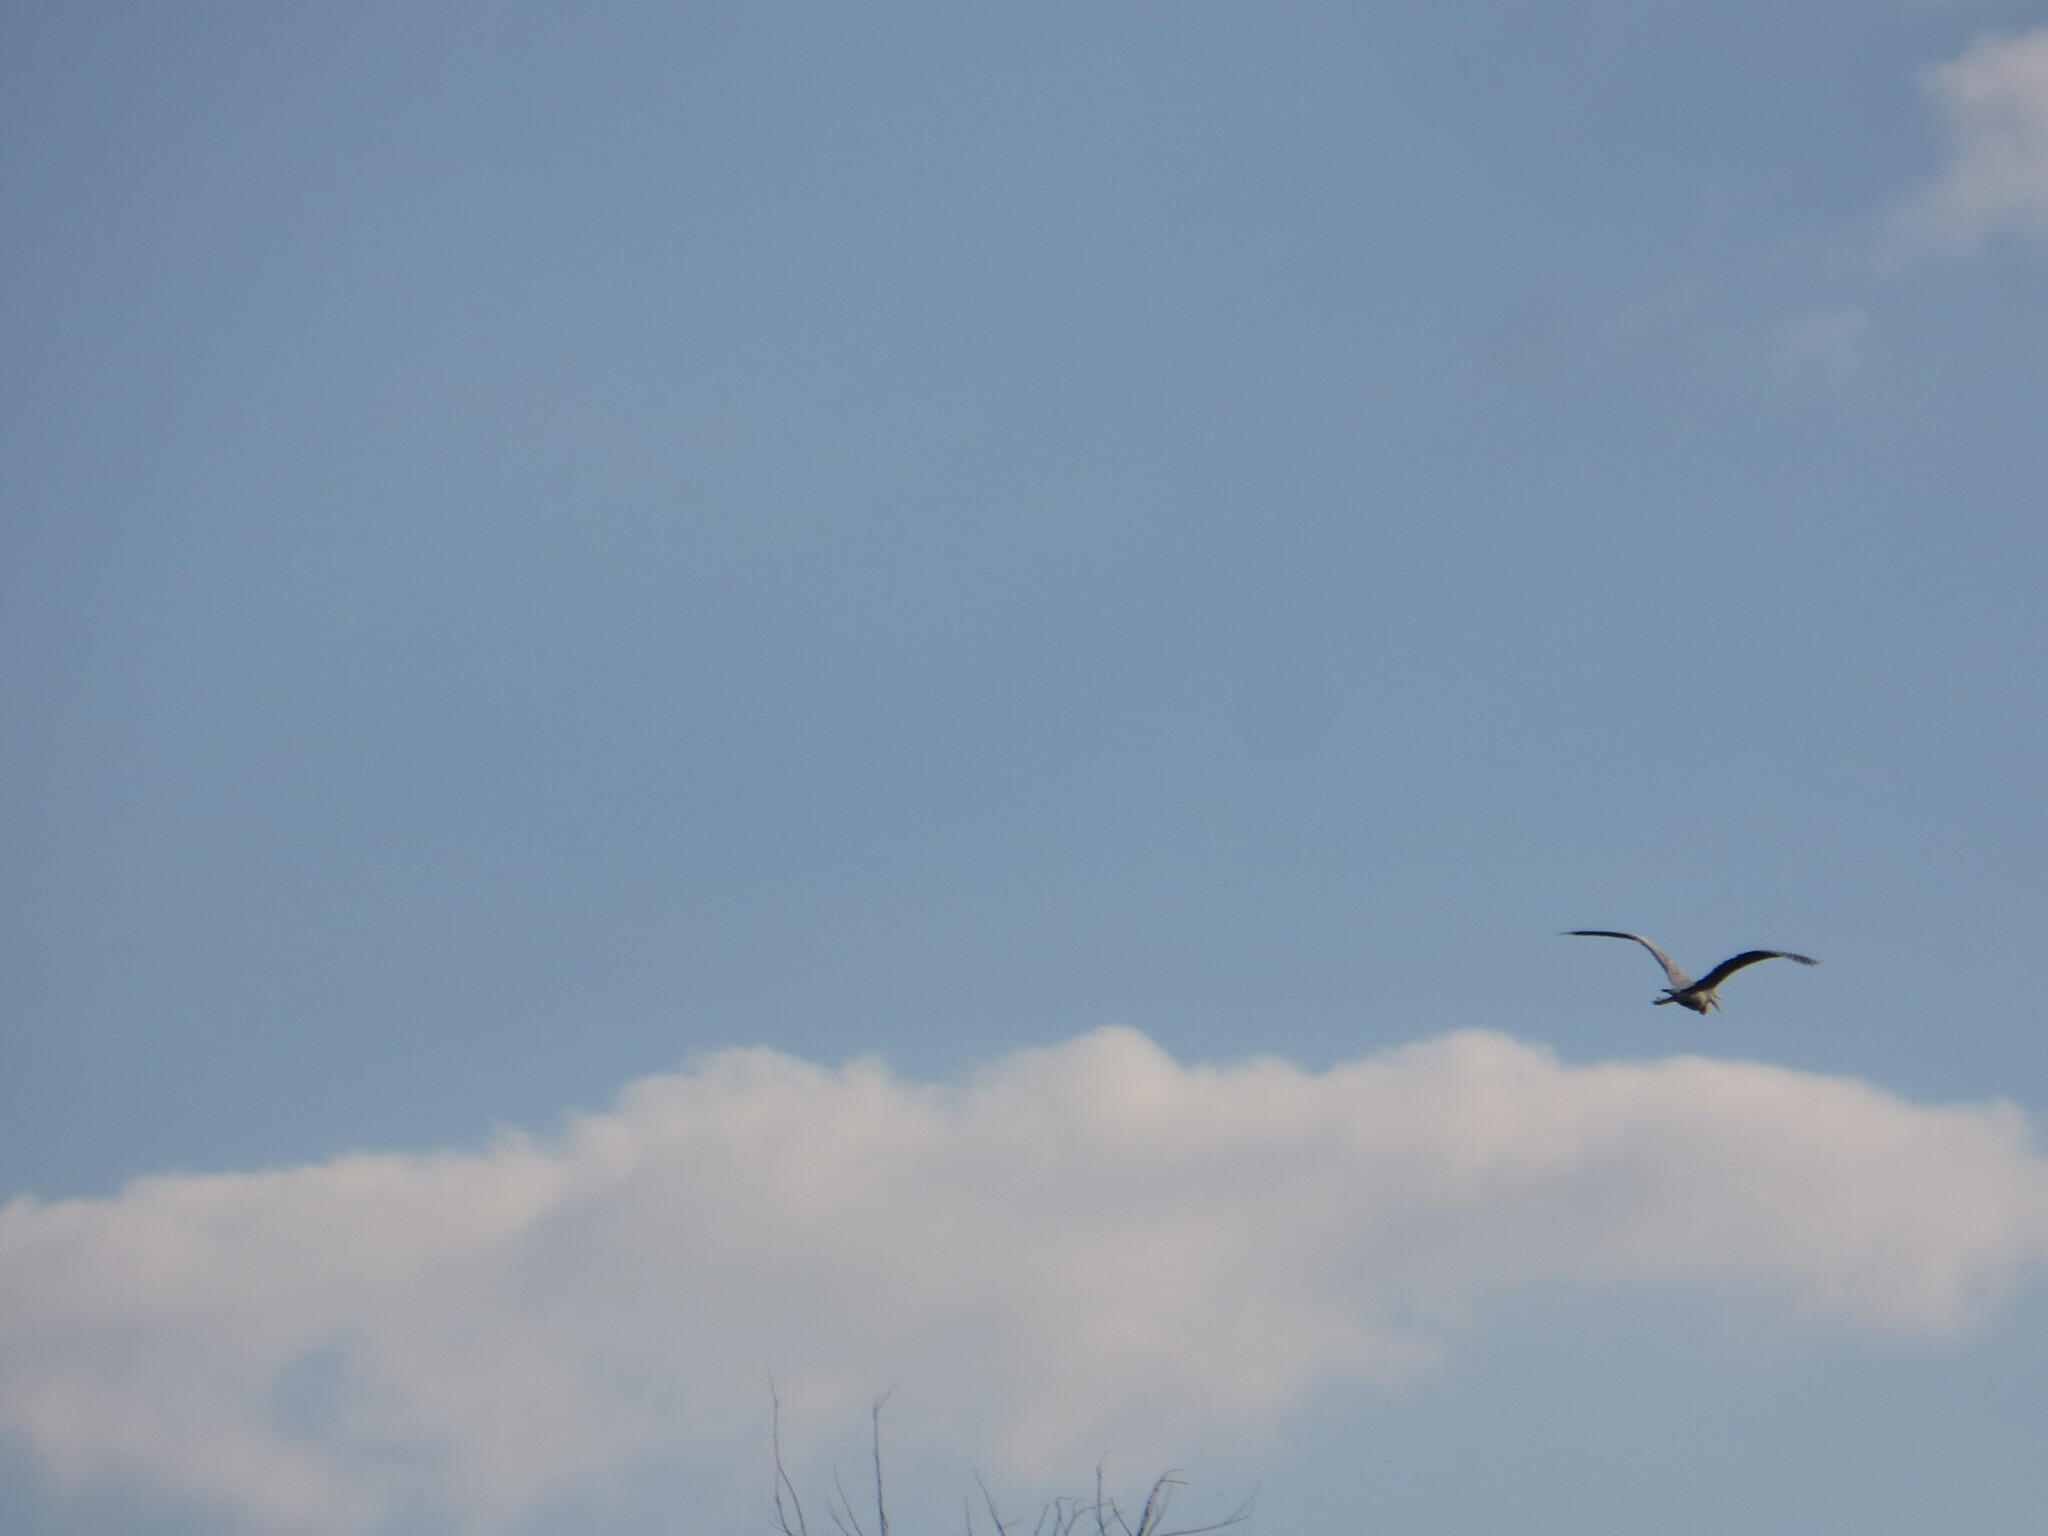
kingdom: Animalia
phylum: Chordata
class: Aves
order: Pelecaniformes
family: Ardeidae
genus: Ardea
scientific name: Ardea cinerea
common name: Grey heron
